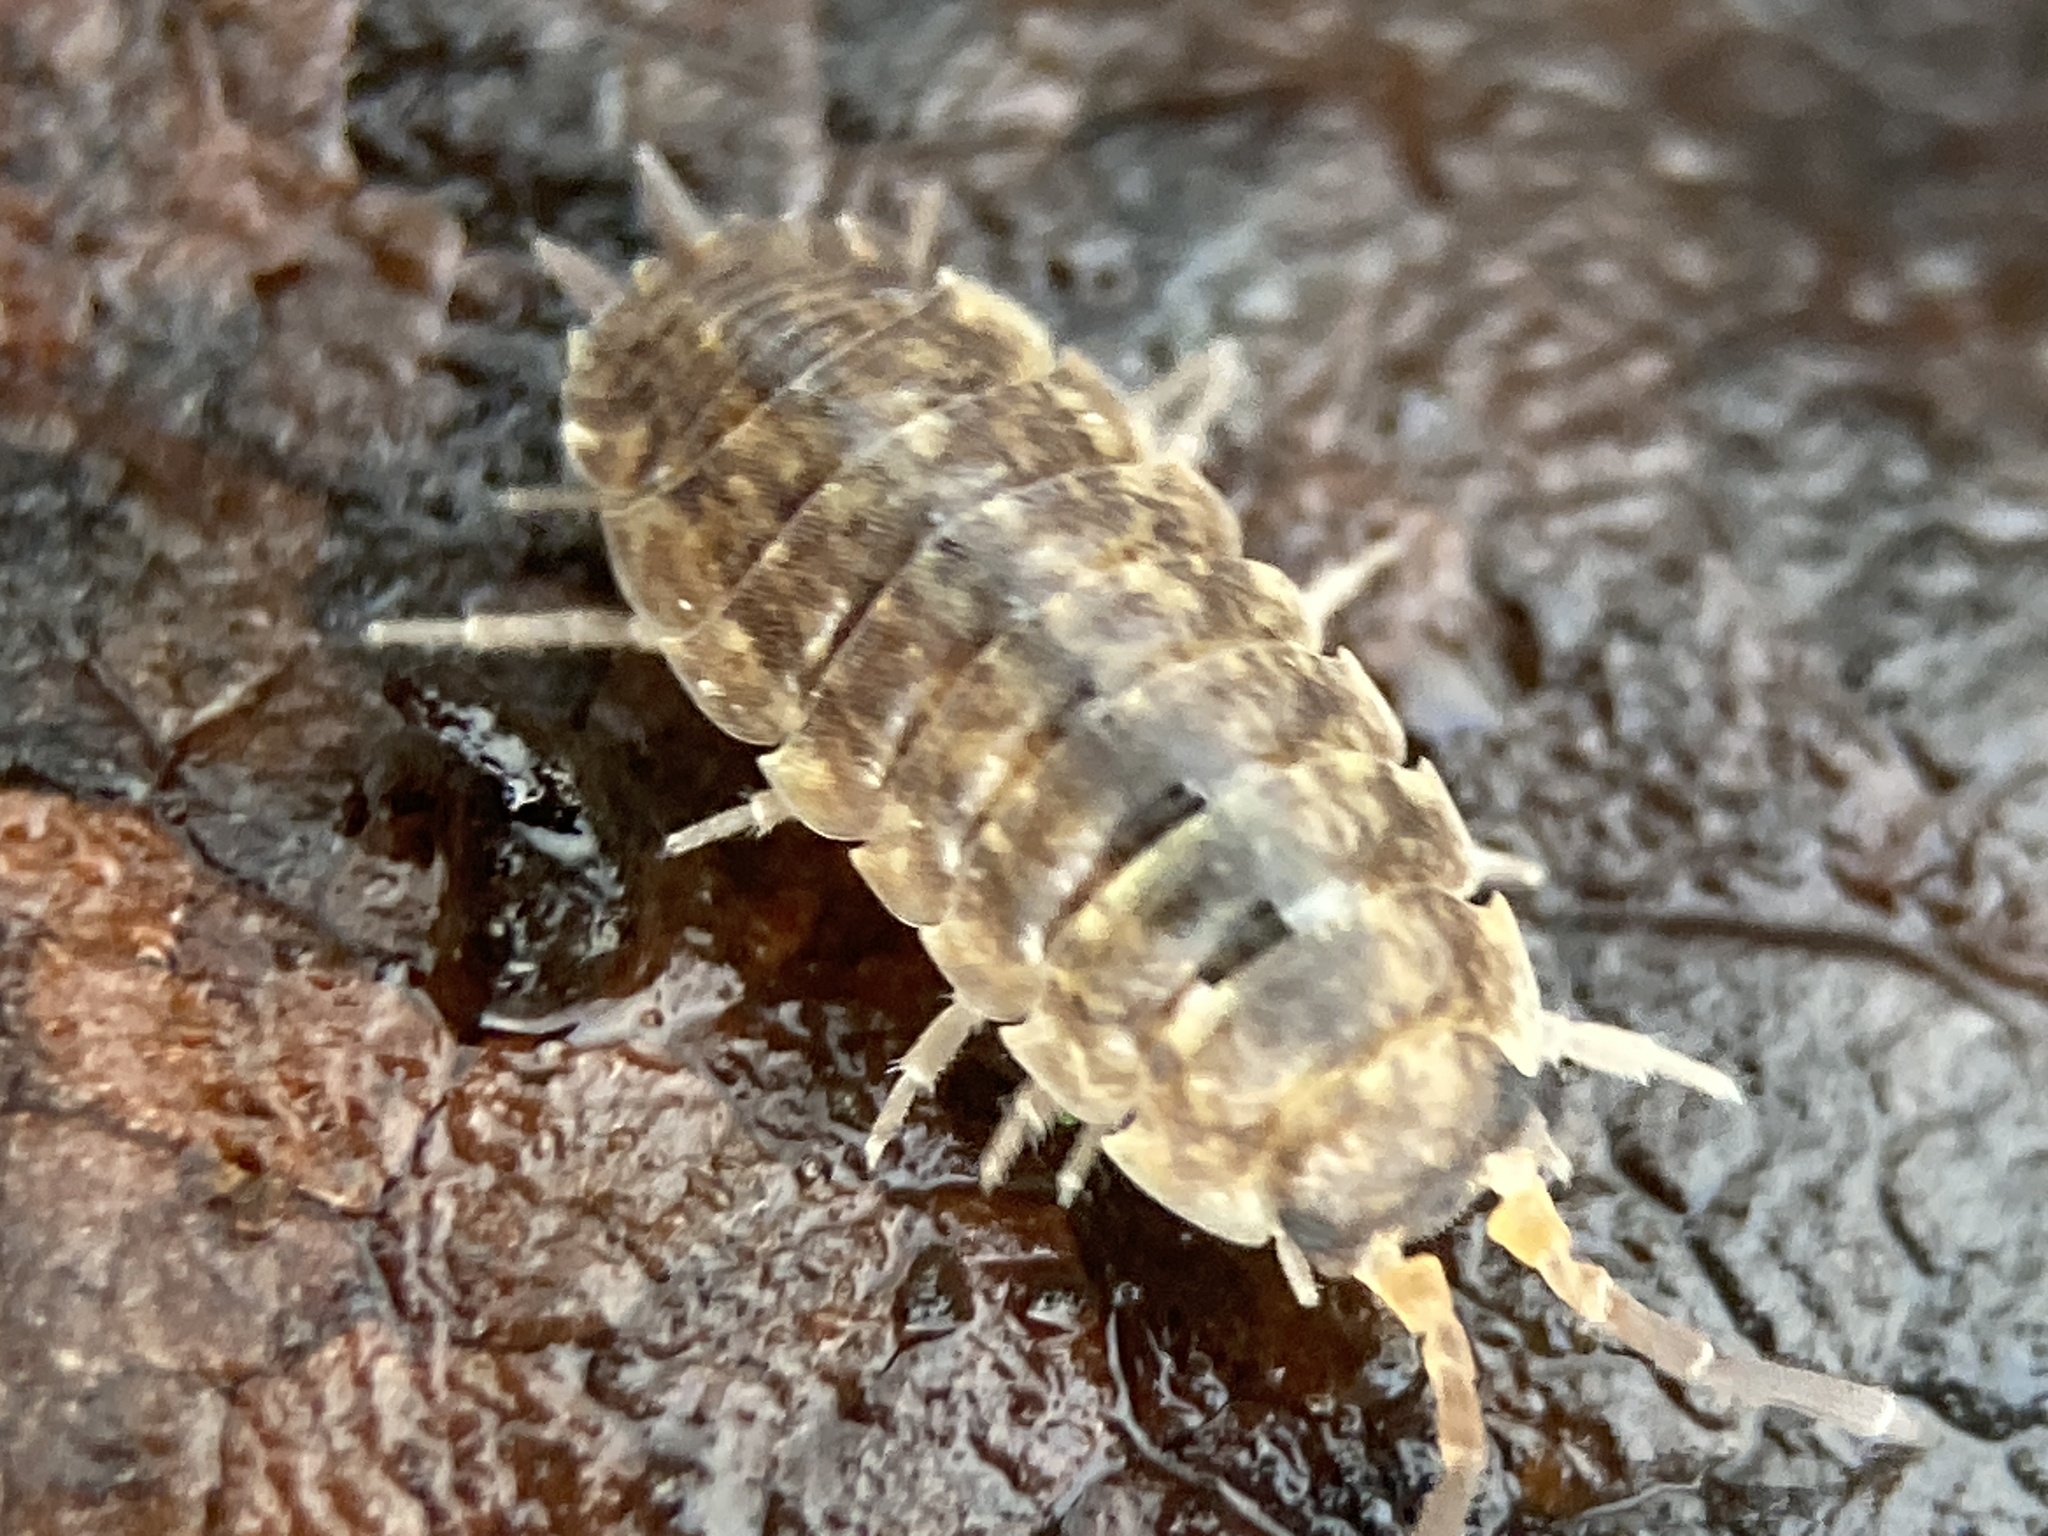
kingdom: Animalia
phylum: Arthropoda
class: Malacostraca
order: Isopoda
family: Porcellionidae
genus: Porcellio
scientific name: Porcellio scaber
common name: Common rough woodlouse
